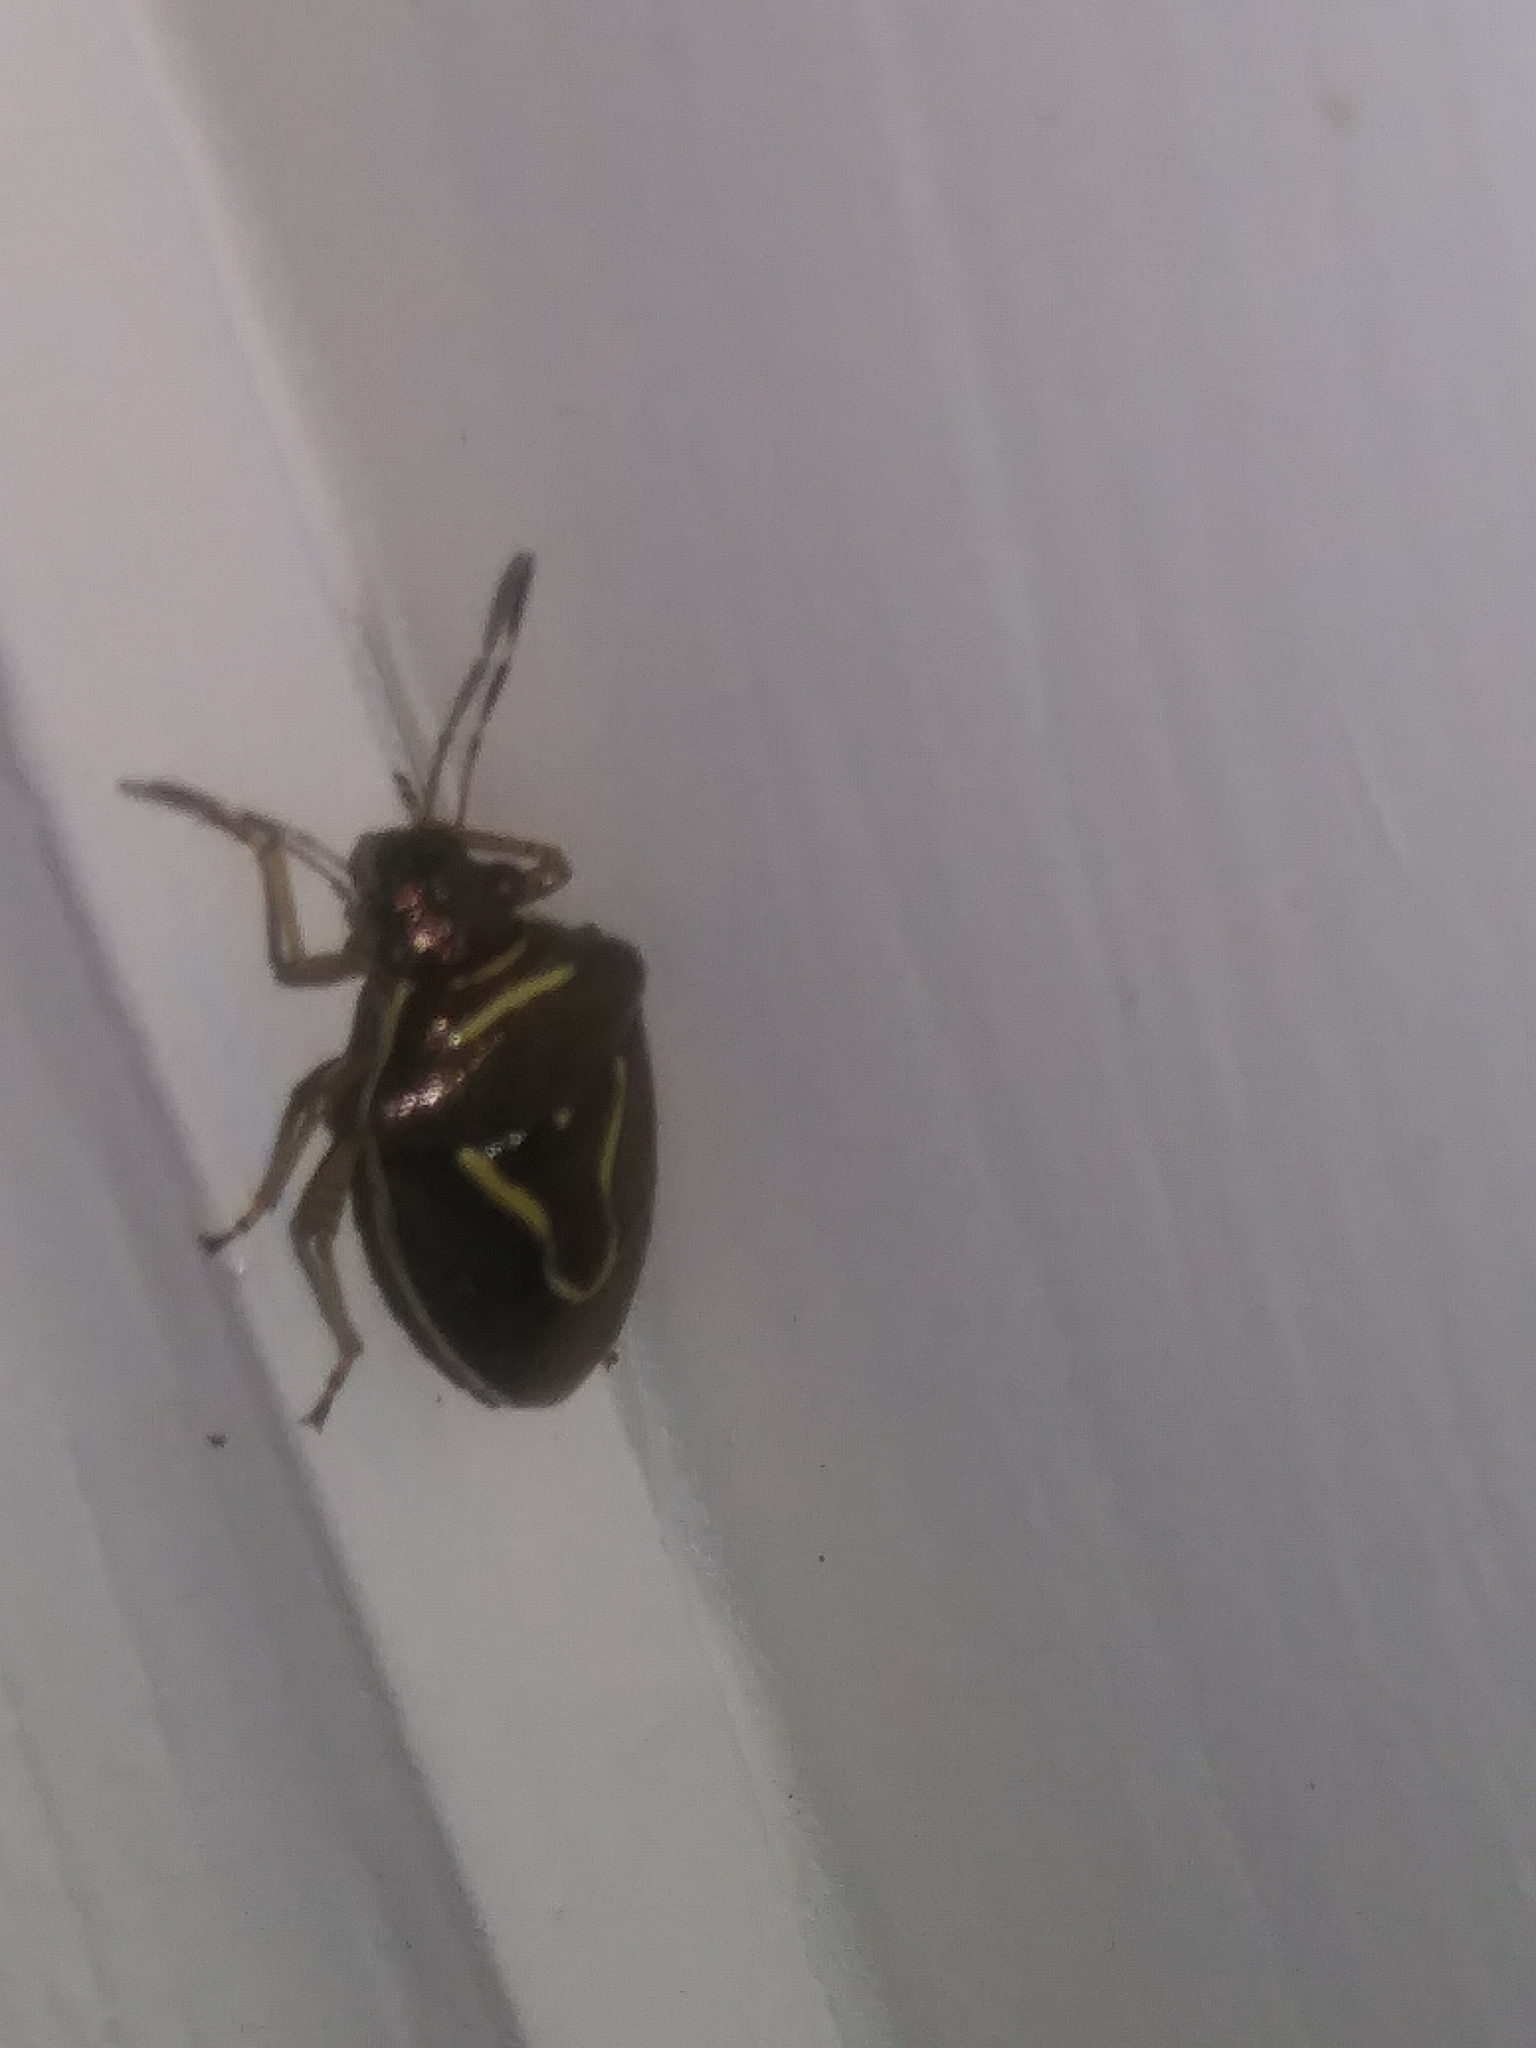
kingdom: Animalia
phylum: Arthropoda
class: Insecta
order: Hemiptera
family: Pentatomidae
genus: Mormidea
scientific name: Mormidea lugens
